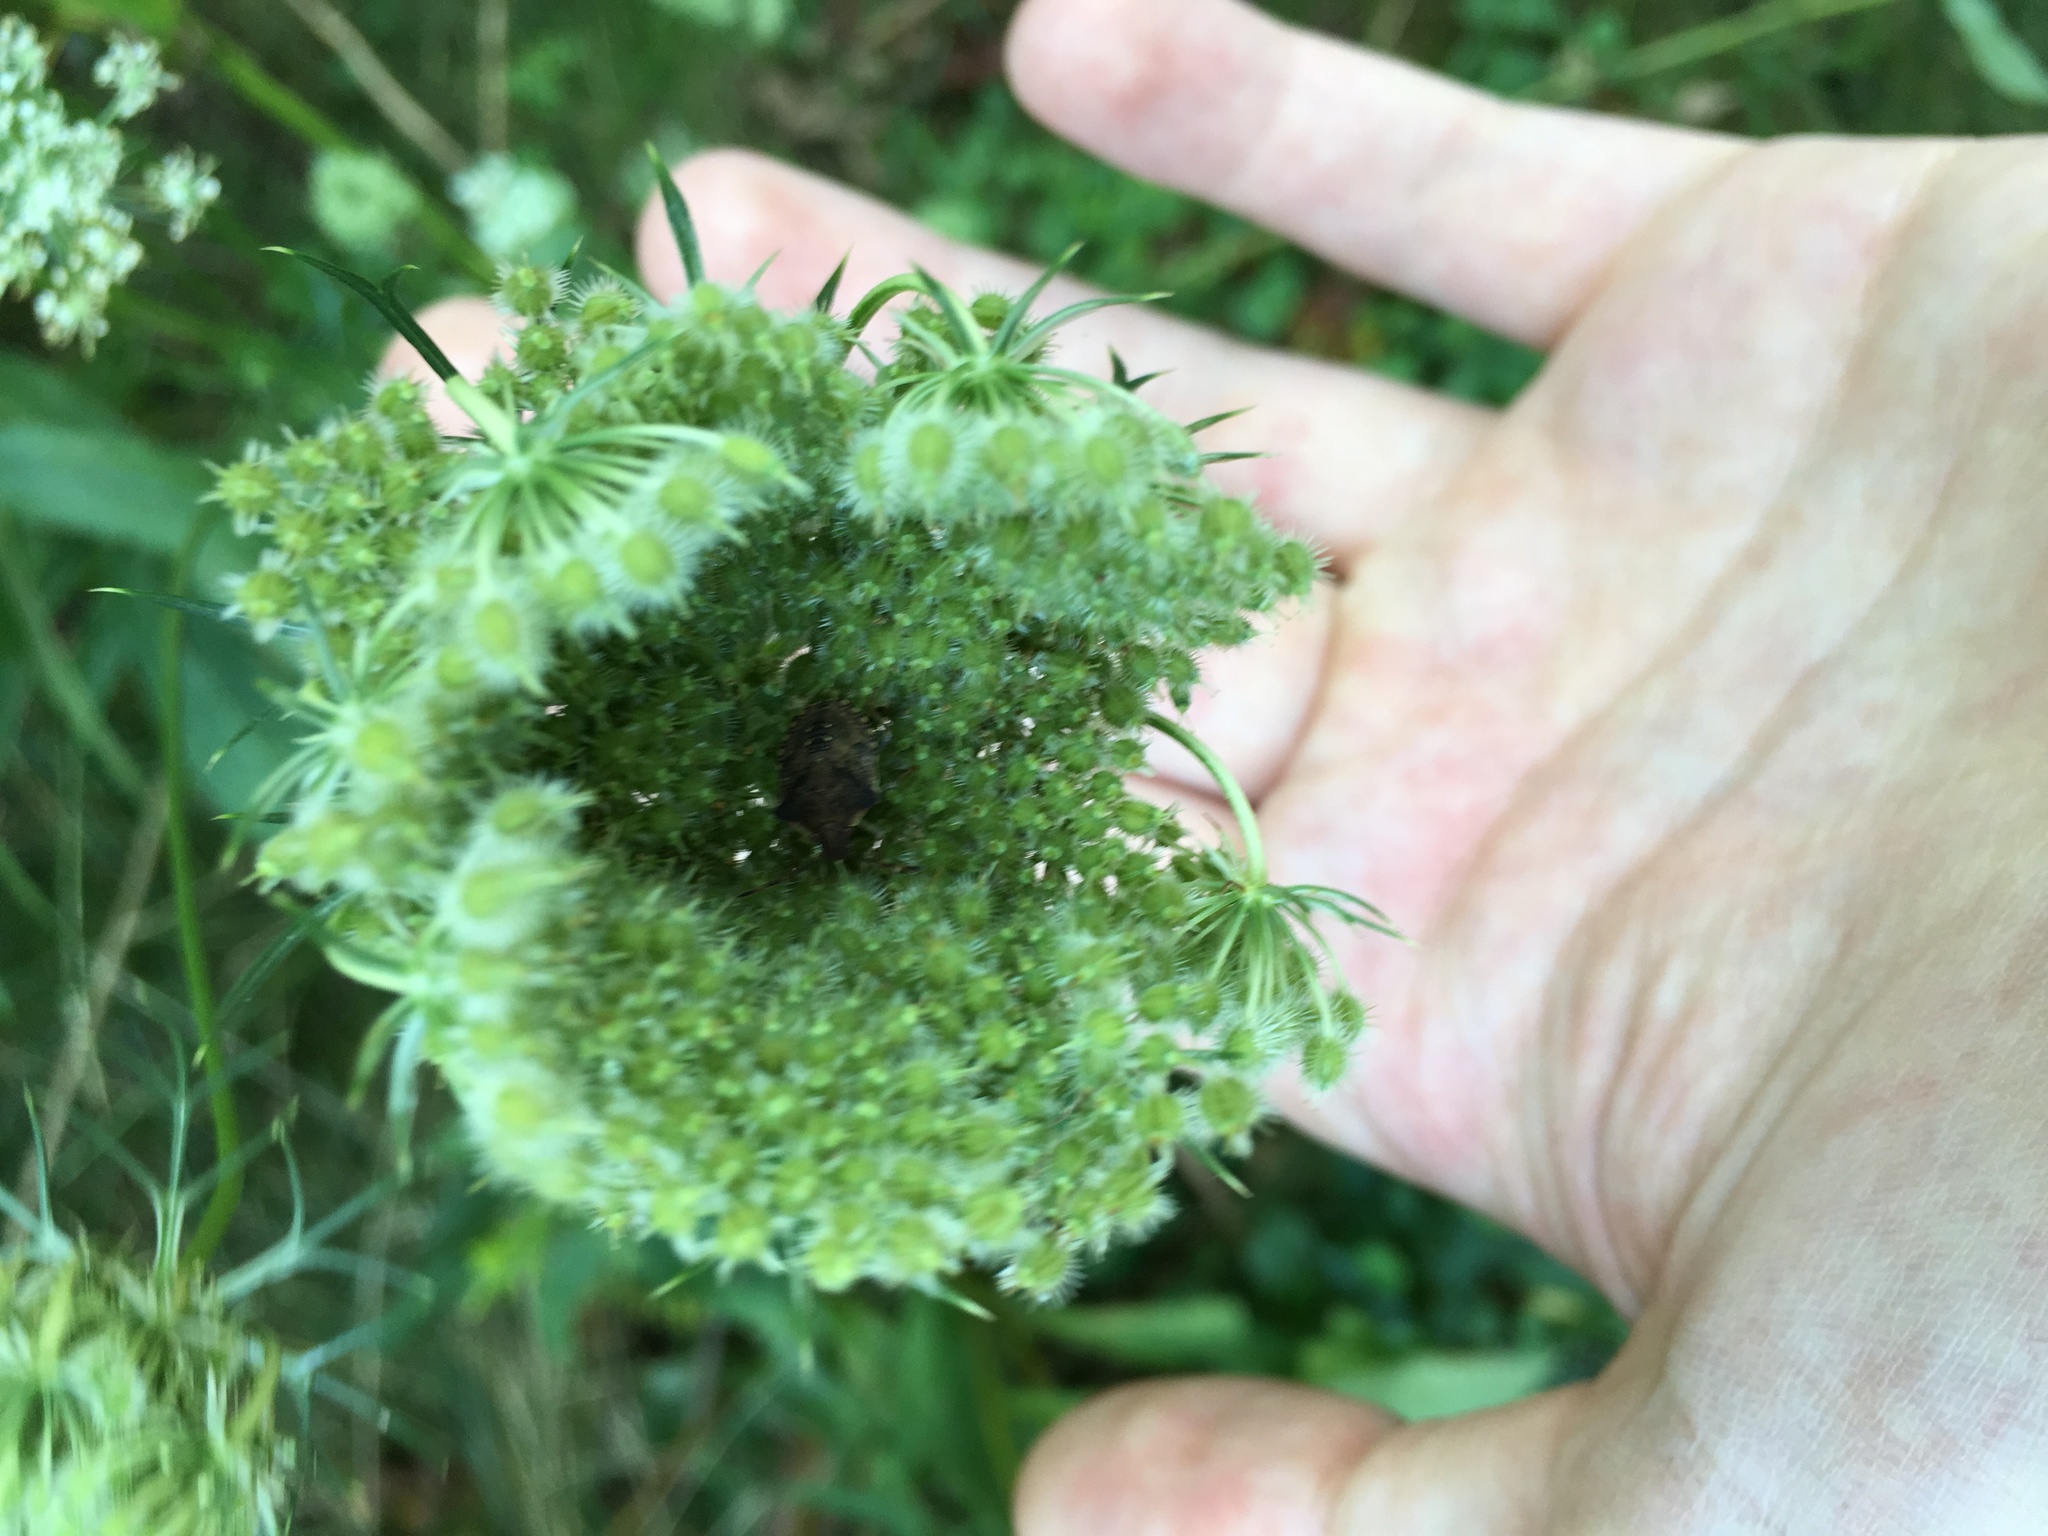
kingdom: Plantae
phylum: Tracheophyta
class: Magnoliopsida
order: Apiales
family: Apiaceae
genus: Daucus
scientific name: Daucus carota
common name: Wild carrot
